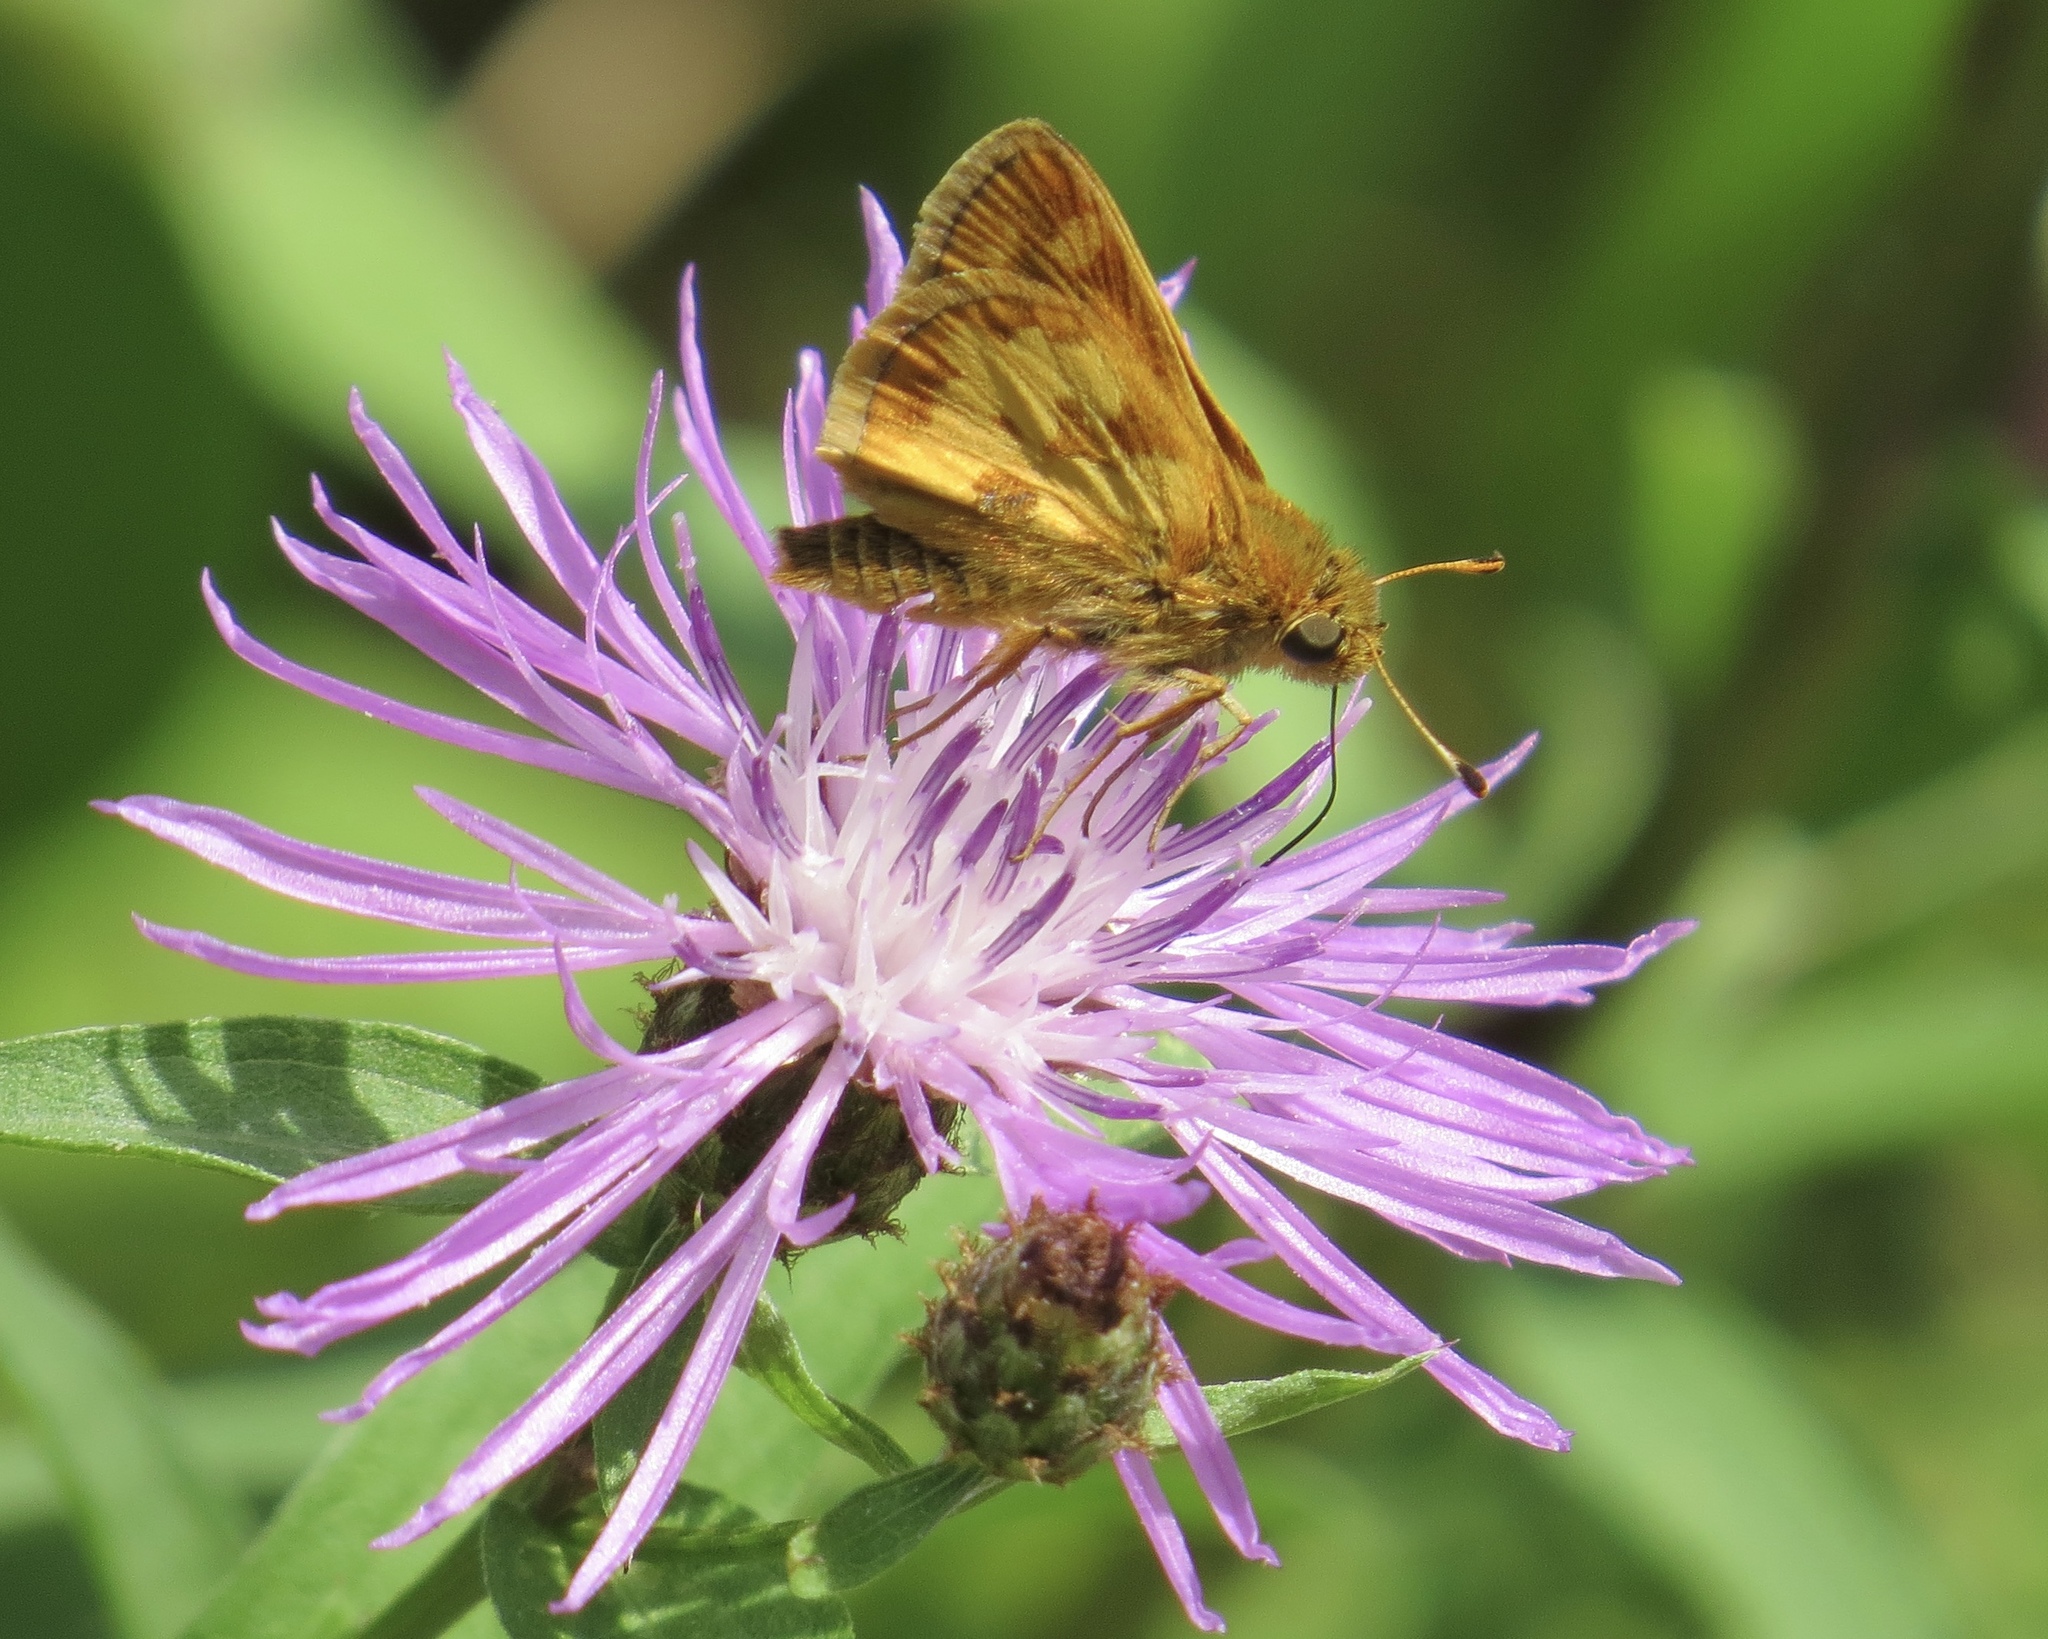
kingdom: Animalia
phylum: Arthropoda
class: Insecta
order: Lepidoptera
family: Hesperiidae
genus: Polites
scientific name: Polites coras
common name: Peck's skipper
